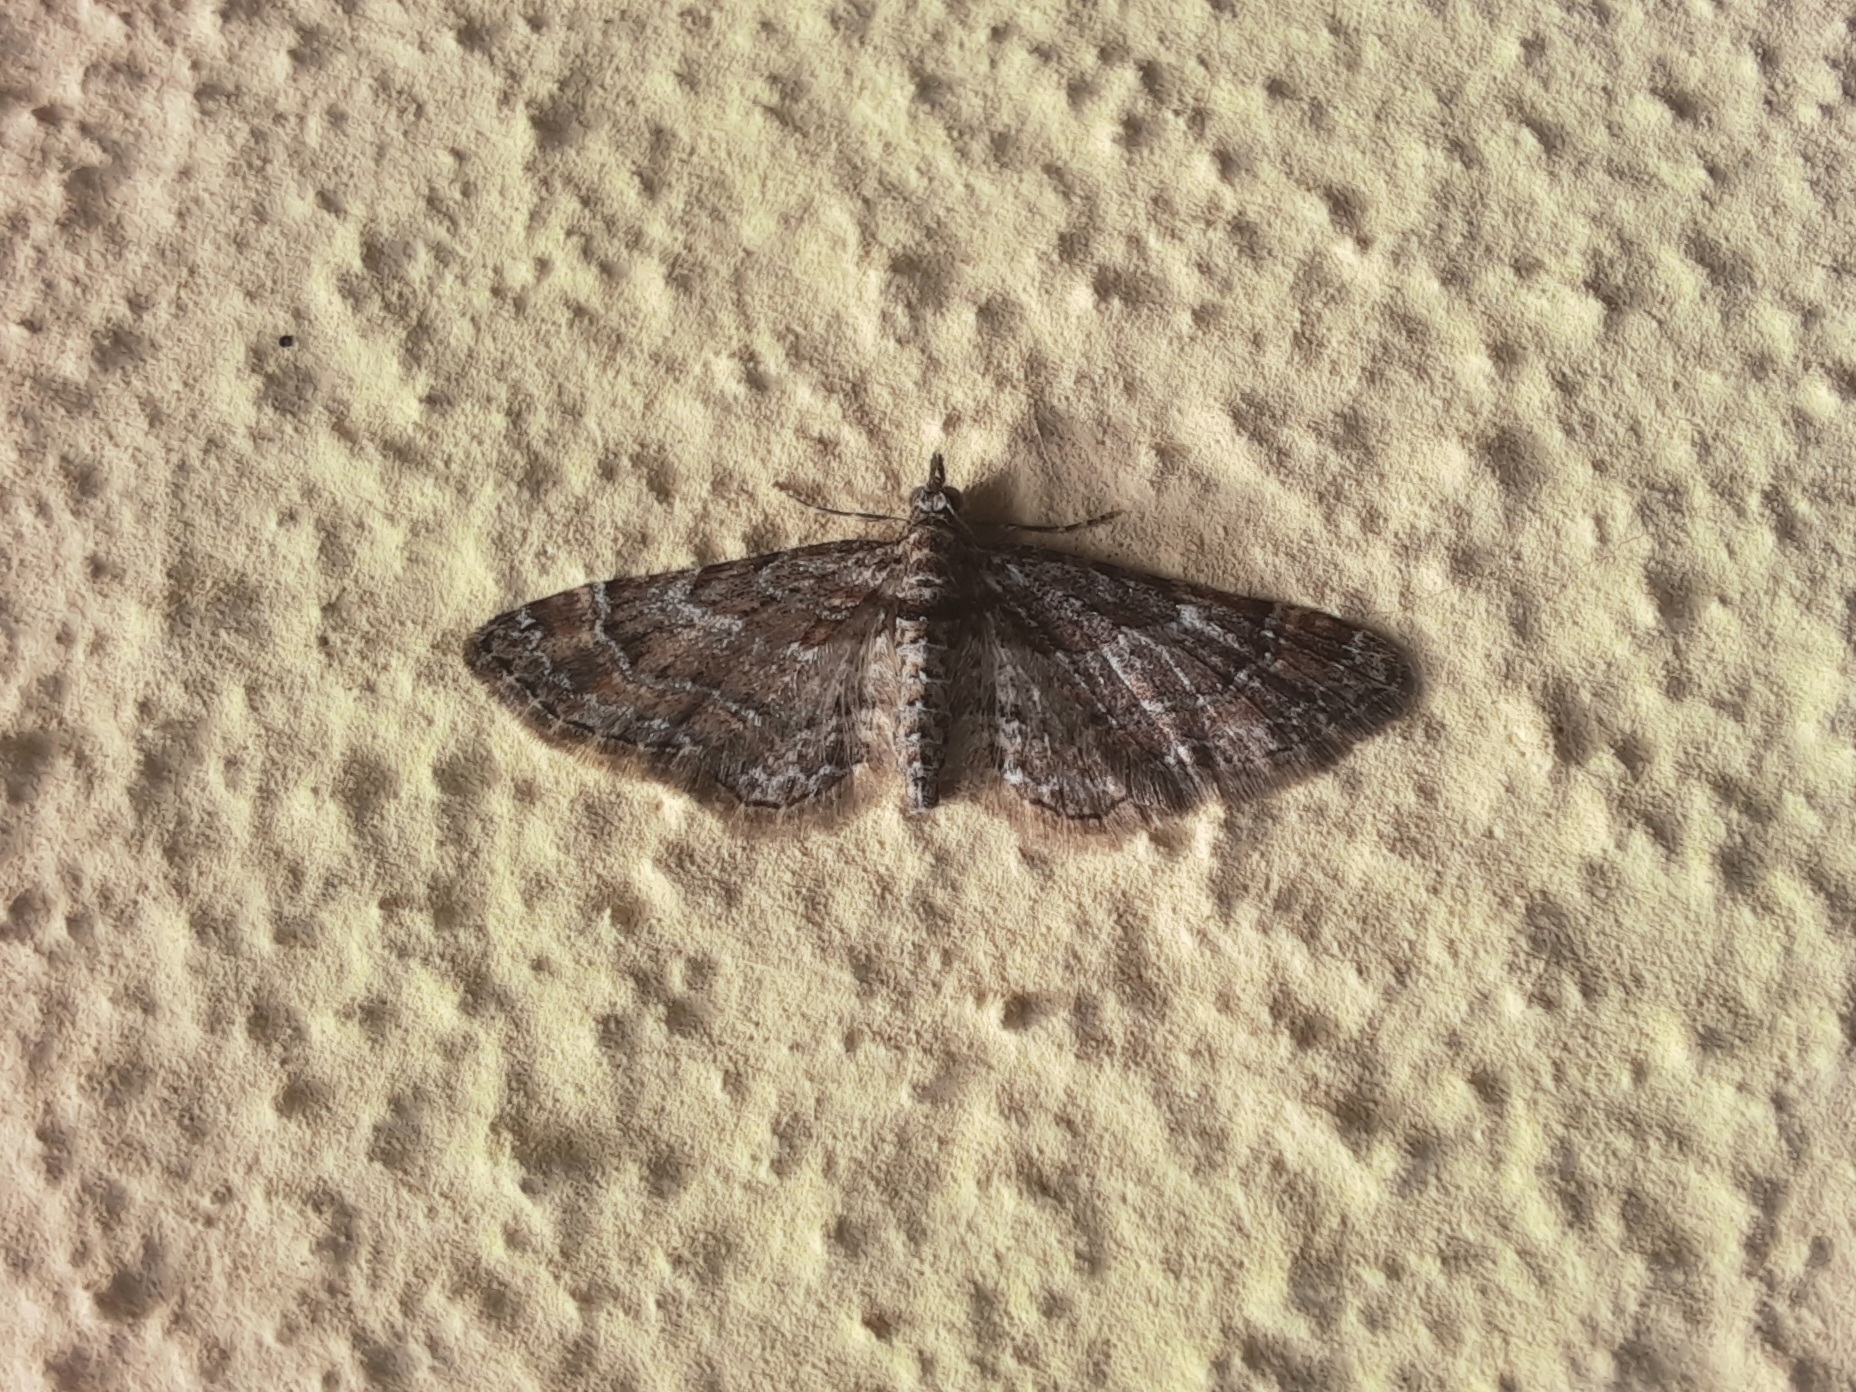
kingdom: Animalia
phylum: Arthropoda
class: Insecta
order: Lepidoptera
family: Geometridae
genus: Gymnoscelis
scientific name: Gymnoscelis rufifasciata
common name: Double-striped pug
